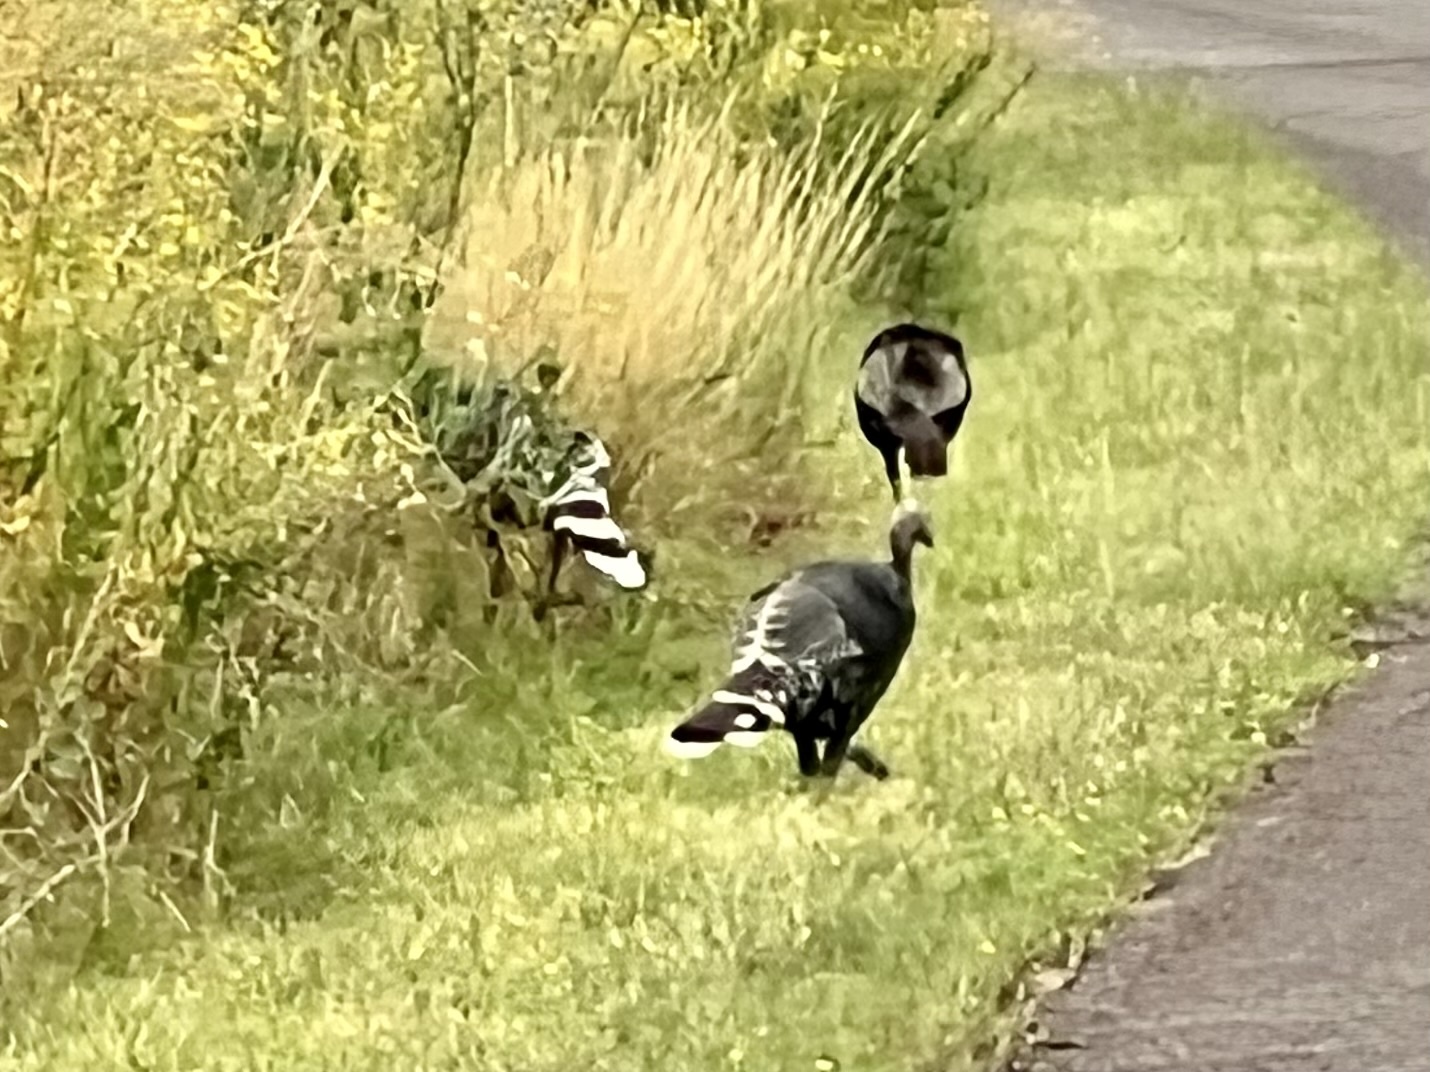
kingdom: Animalia
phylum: Chordata
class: Aves
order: Galliformes
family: Phasianidae
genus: Meleagris
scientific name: Meleagris gallopavo
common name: Wild turkey
